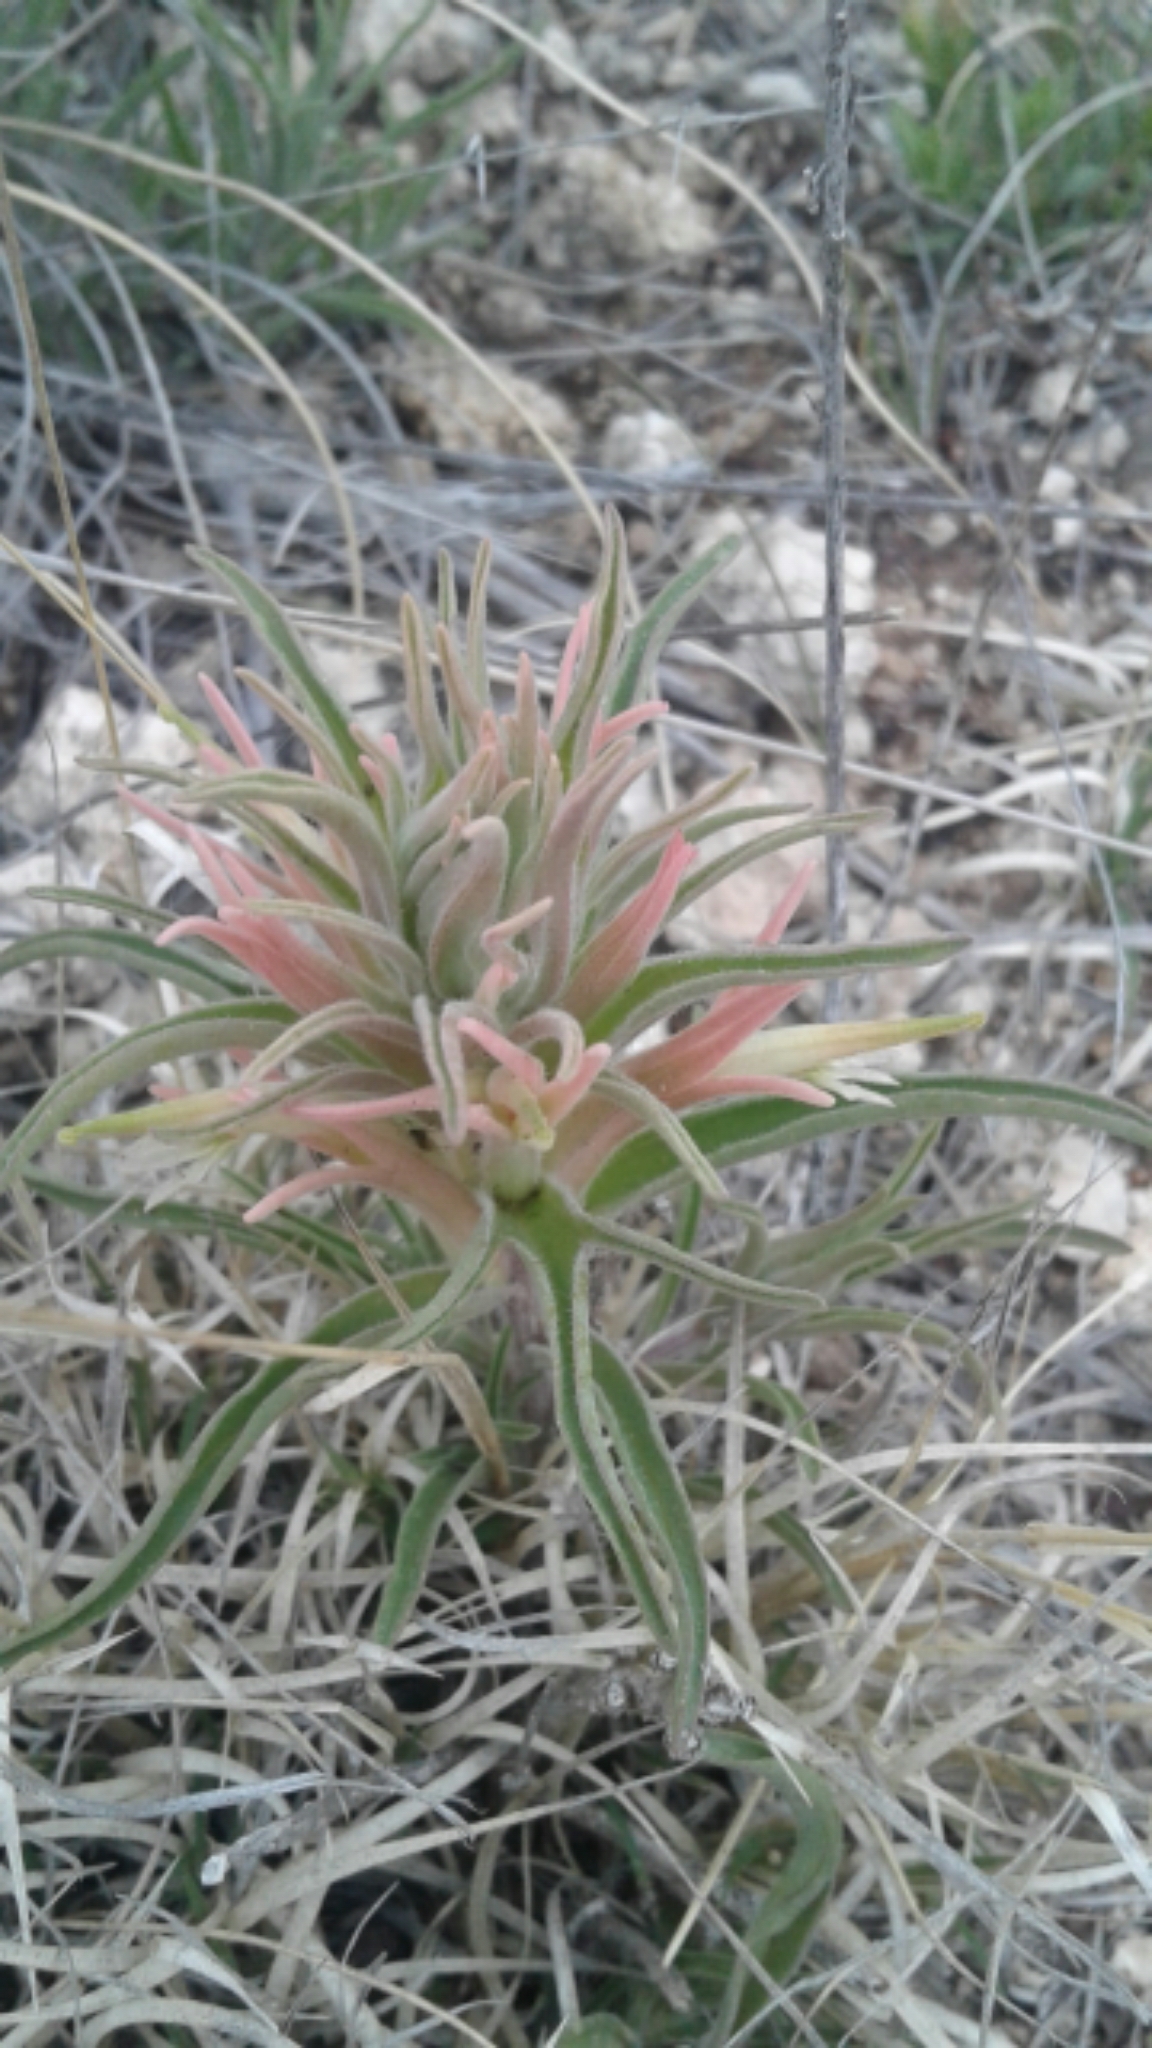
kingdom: Plantae
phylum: Tracheophyta
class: Magnoliopsida
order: Lamiales
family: Orobanchaceae
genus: Castilleja
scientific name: Castilleja sessiliflora
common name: Downy paintbrush
